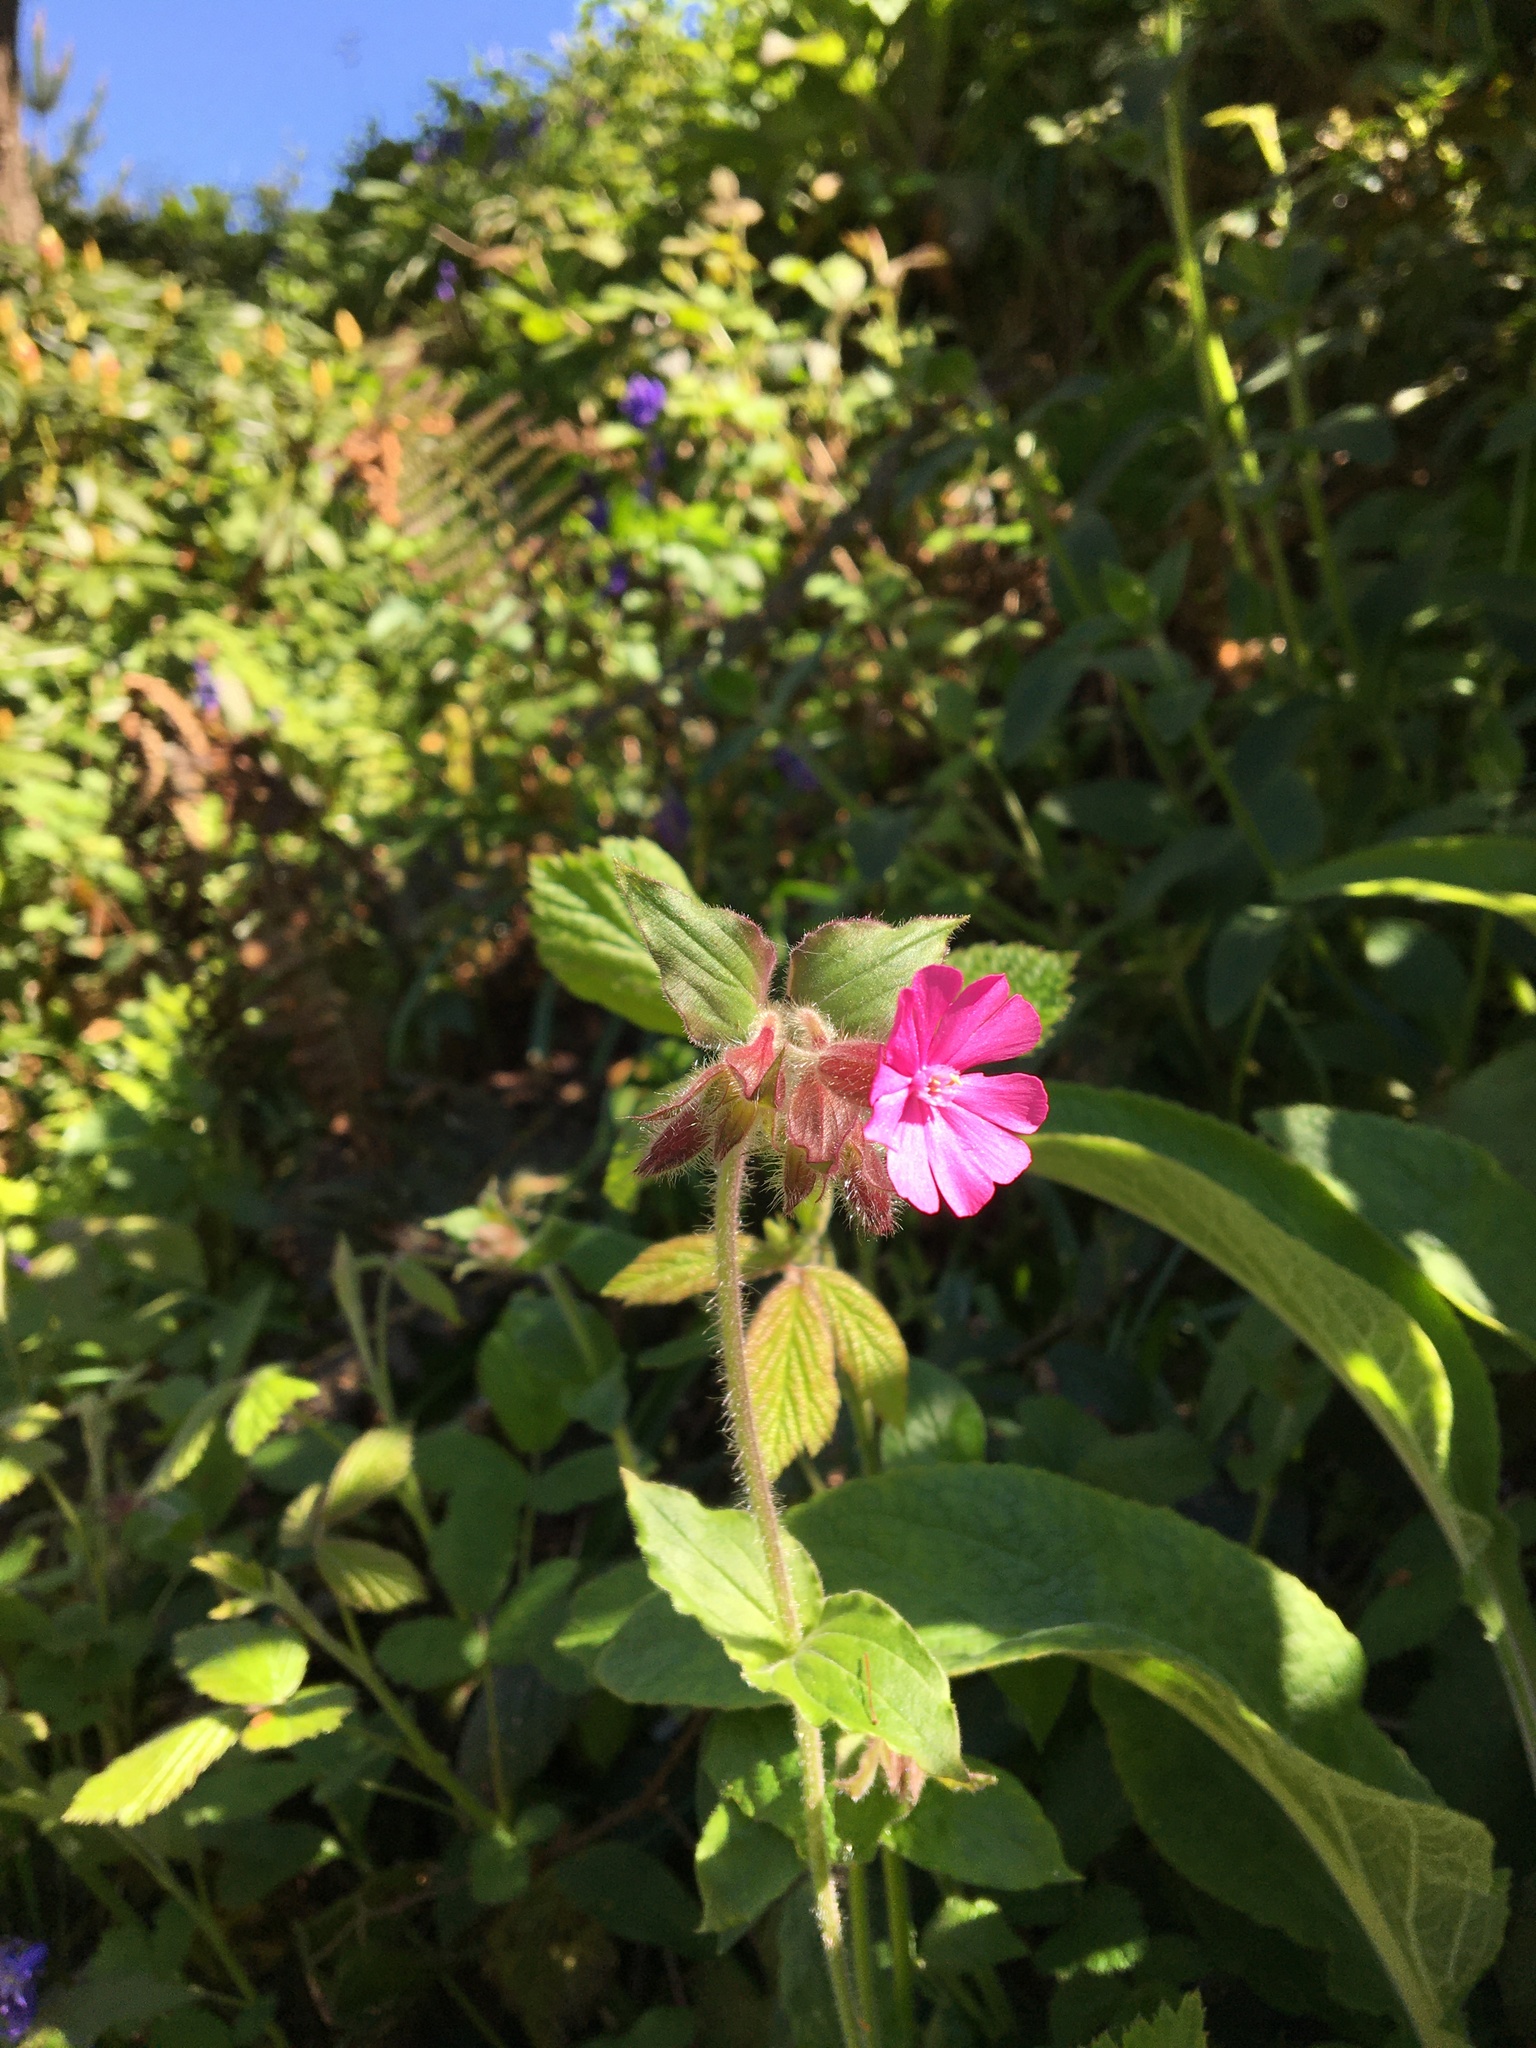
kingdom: Plantae
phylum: Tracheophyta
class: Magnoliopsida
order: Caryophyllales
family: Caryophyllaceae
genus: Silene
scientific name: Silene dioica
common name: Red campion
